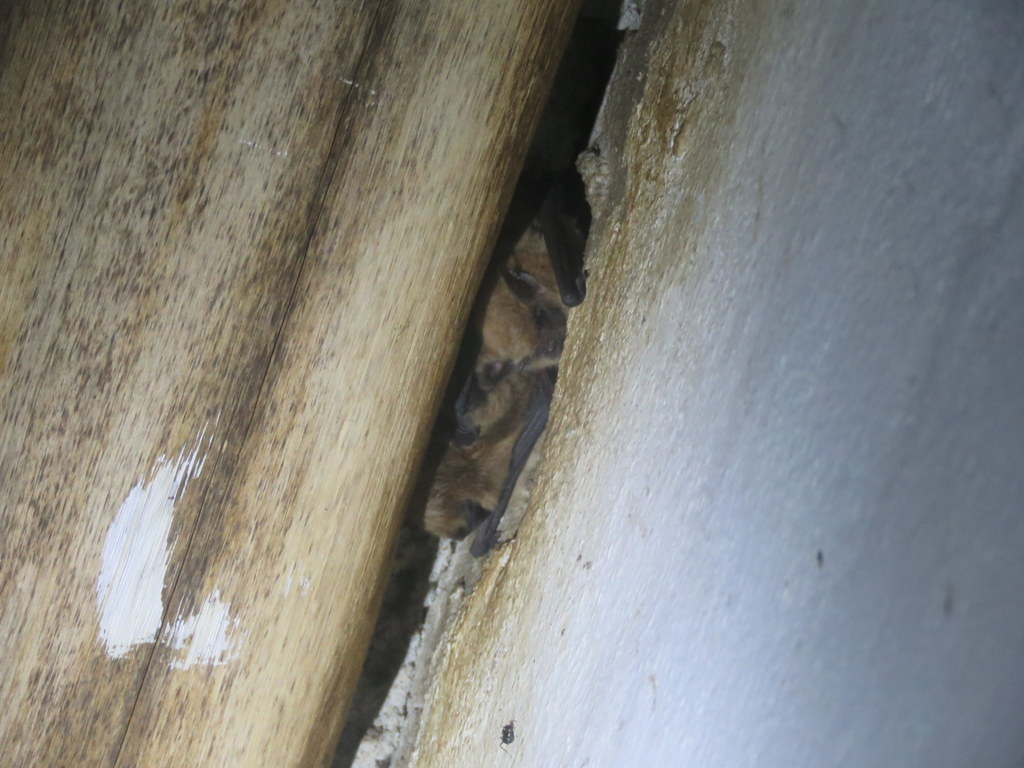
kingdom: Animalia
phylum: Chordata
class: Mammalia
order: Chiroptera
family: Vespertilionidae
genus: Myotis
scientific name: Myotis dinellii
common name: Dinelli's myotis
